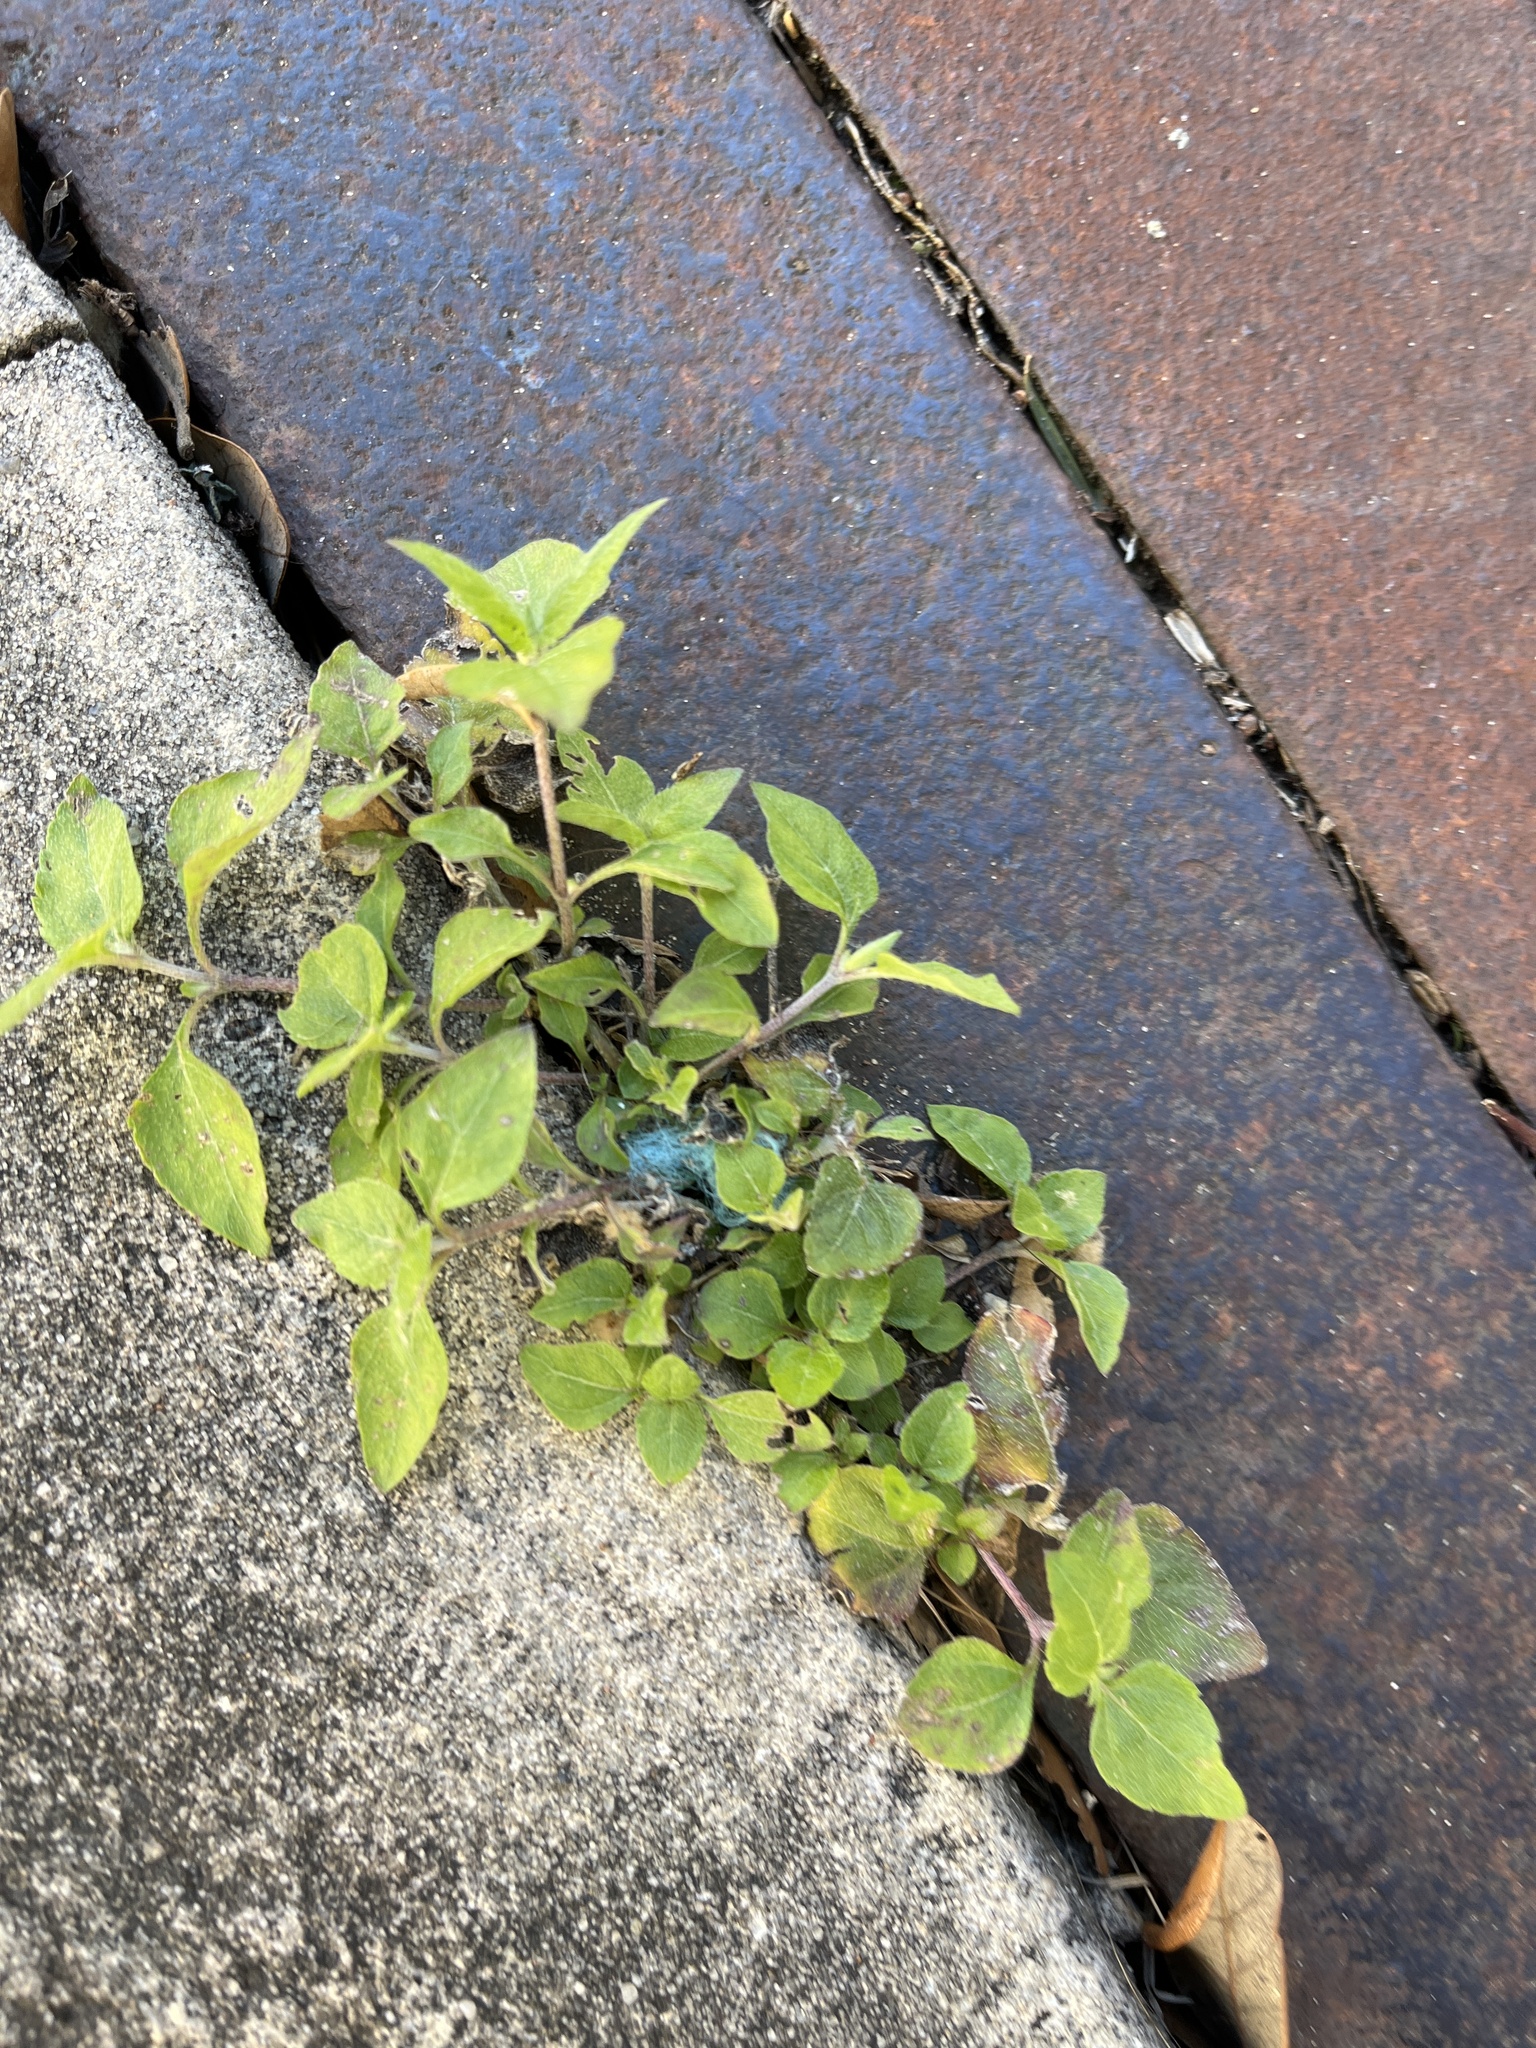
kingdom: Plantae
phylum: Tracheophyta
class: Magnoliopsida
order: Asterales
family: Asteraceae
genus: Calyptocarpus
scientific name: Calyptocarpus vialis
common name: Straggler daisy
